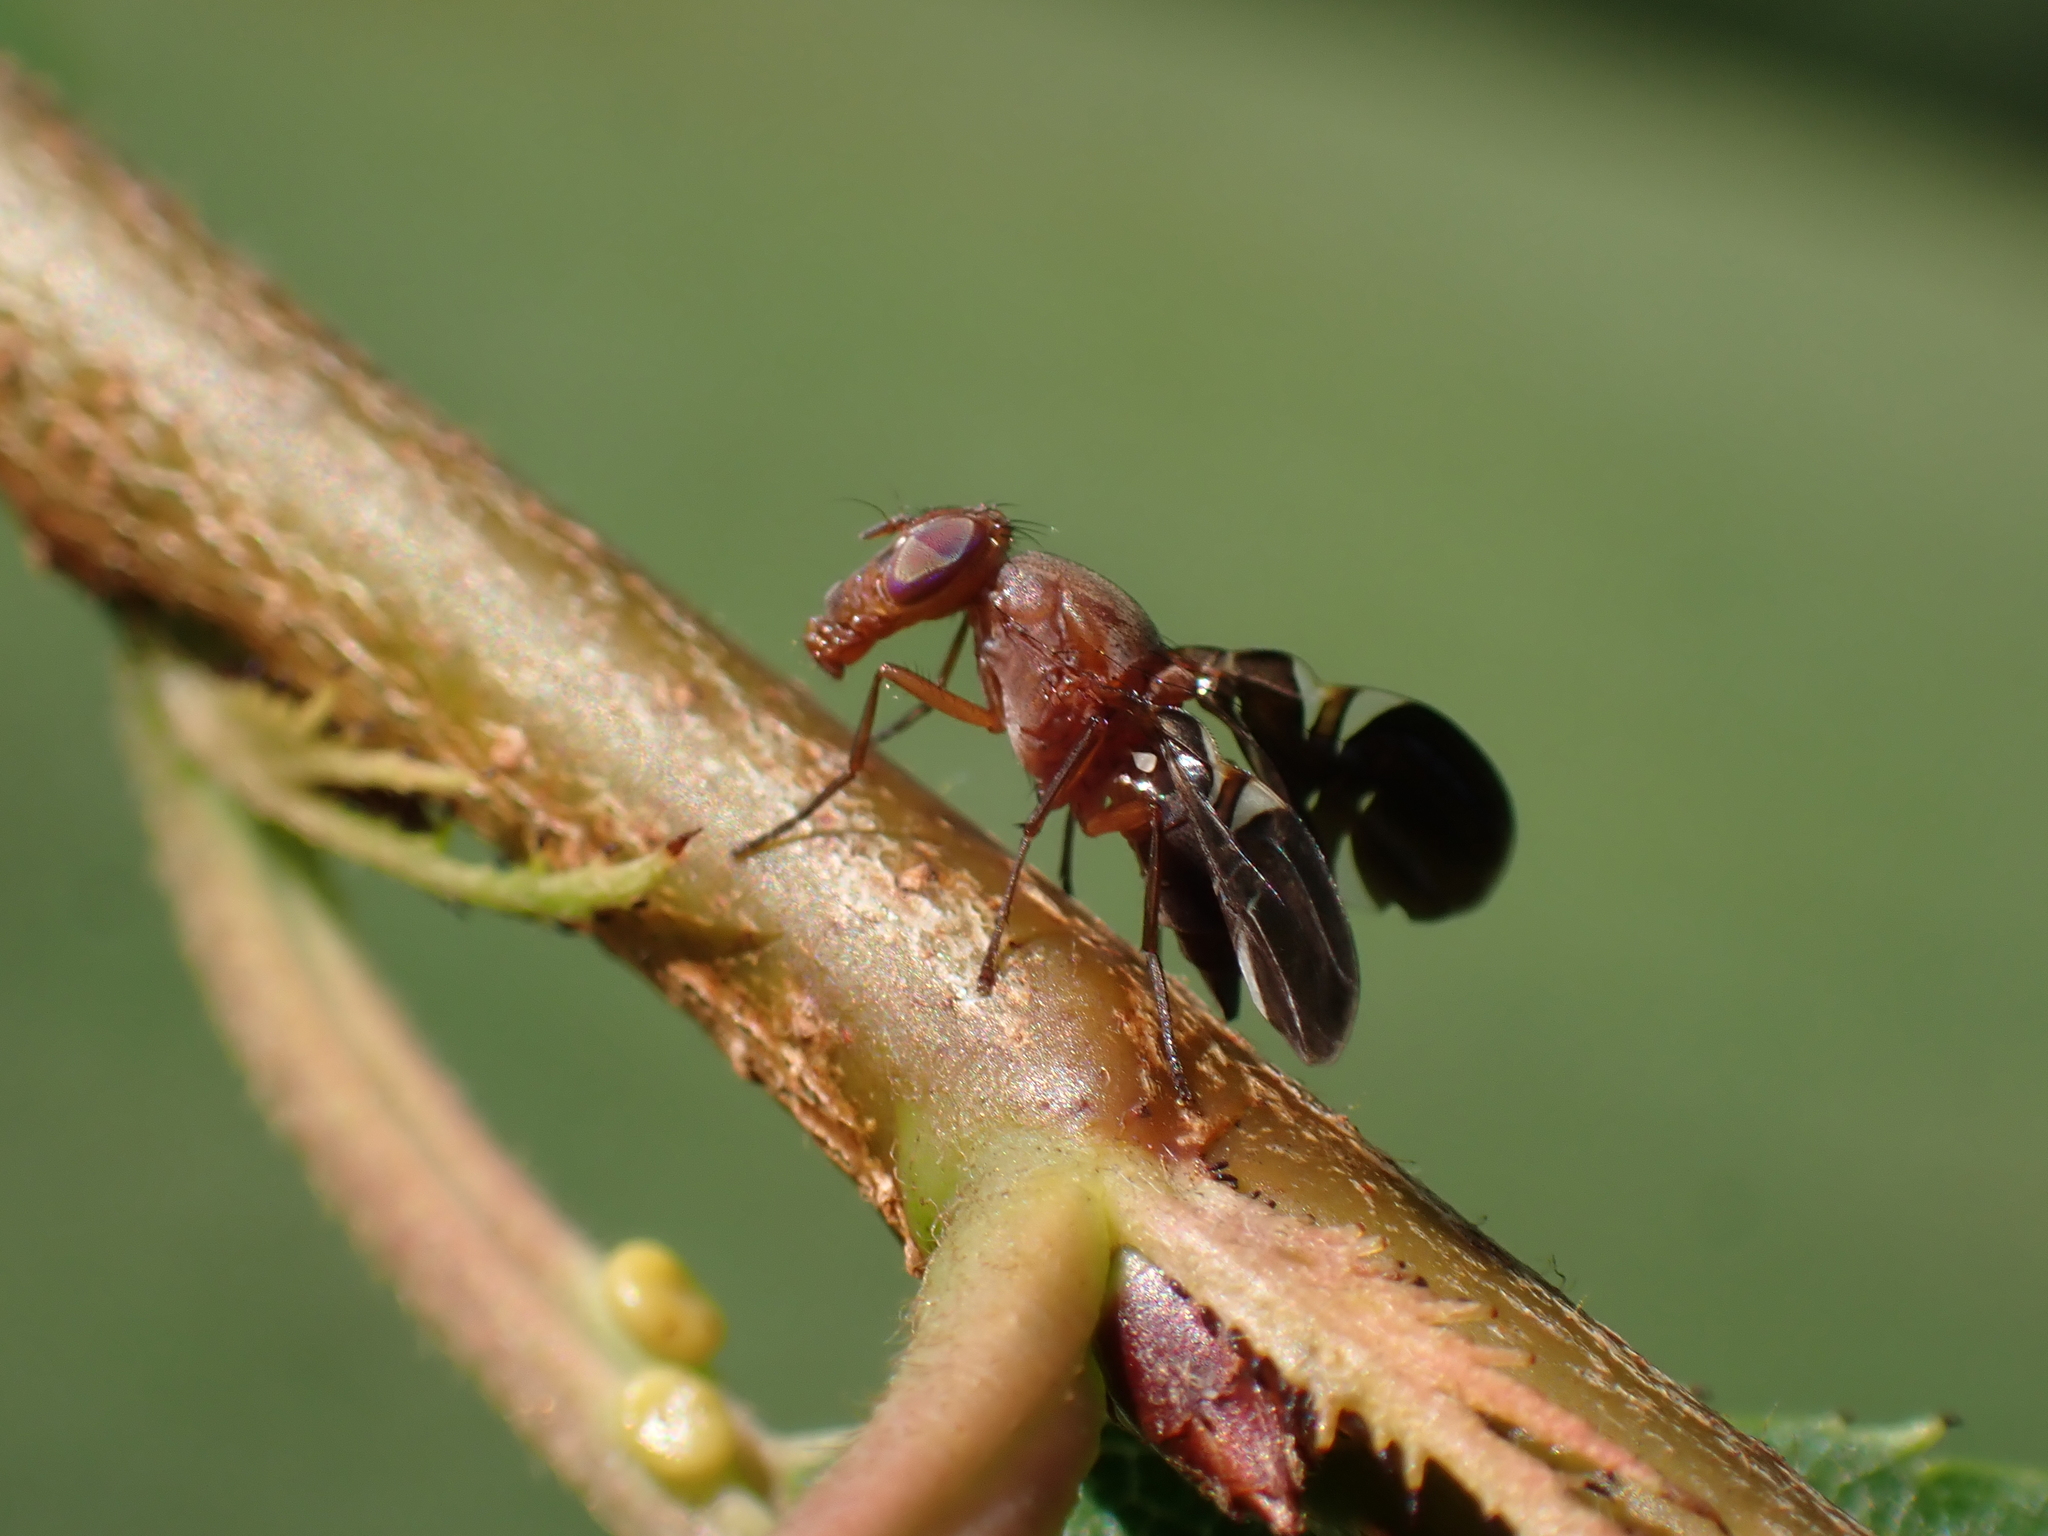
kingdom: Animalia
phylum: Arthropoda
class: Insecta
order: Diptera
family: Ulidiidae
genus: Delphinia
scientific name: Delphinia picta
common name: Common picture-winged fly
